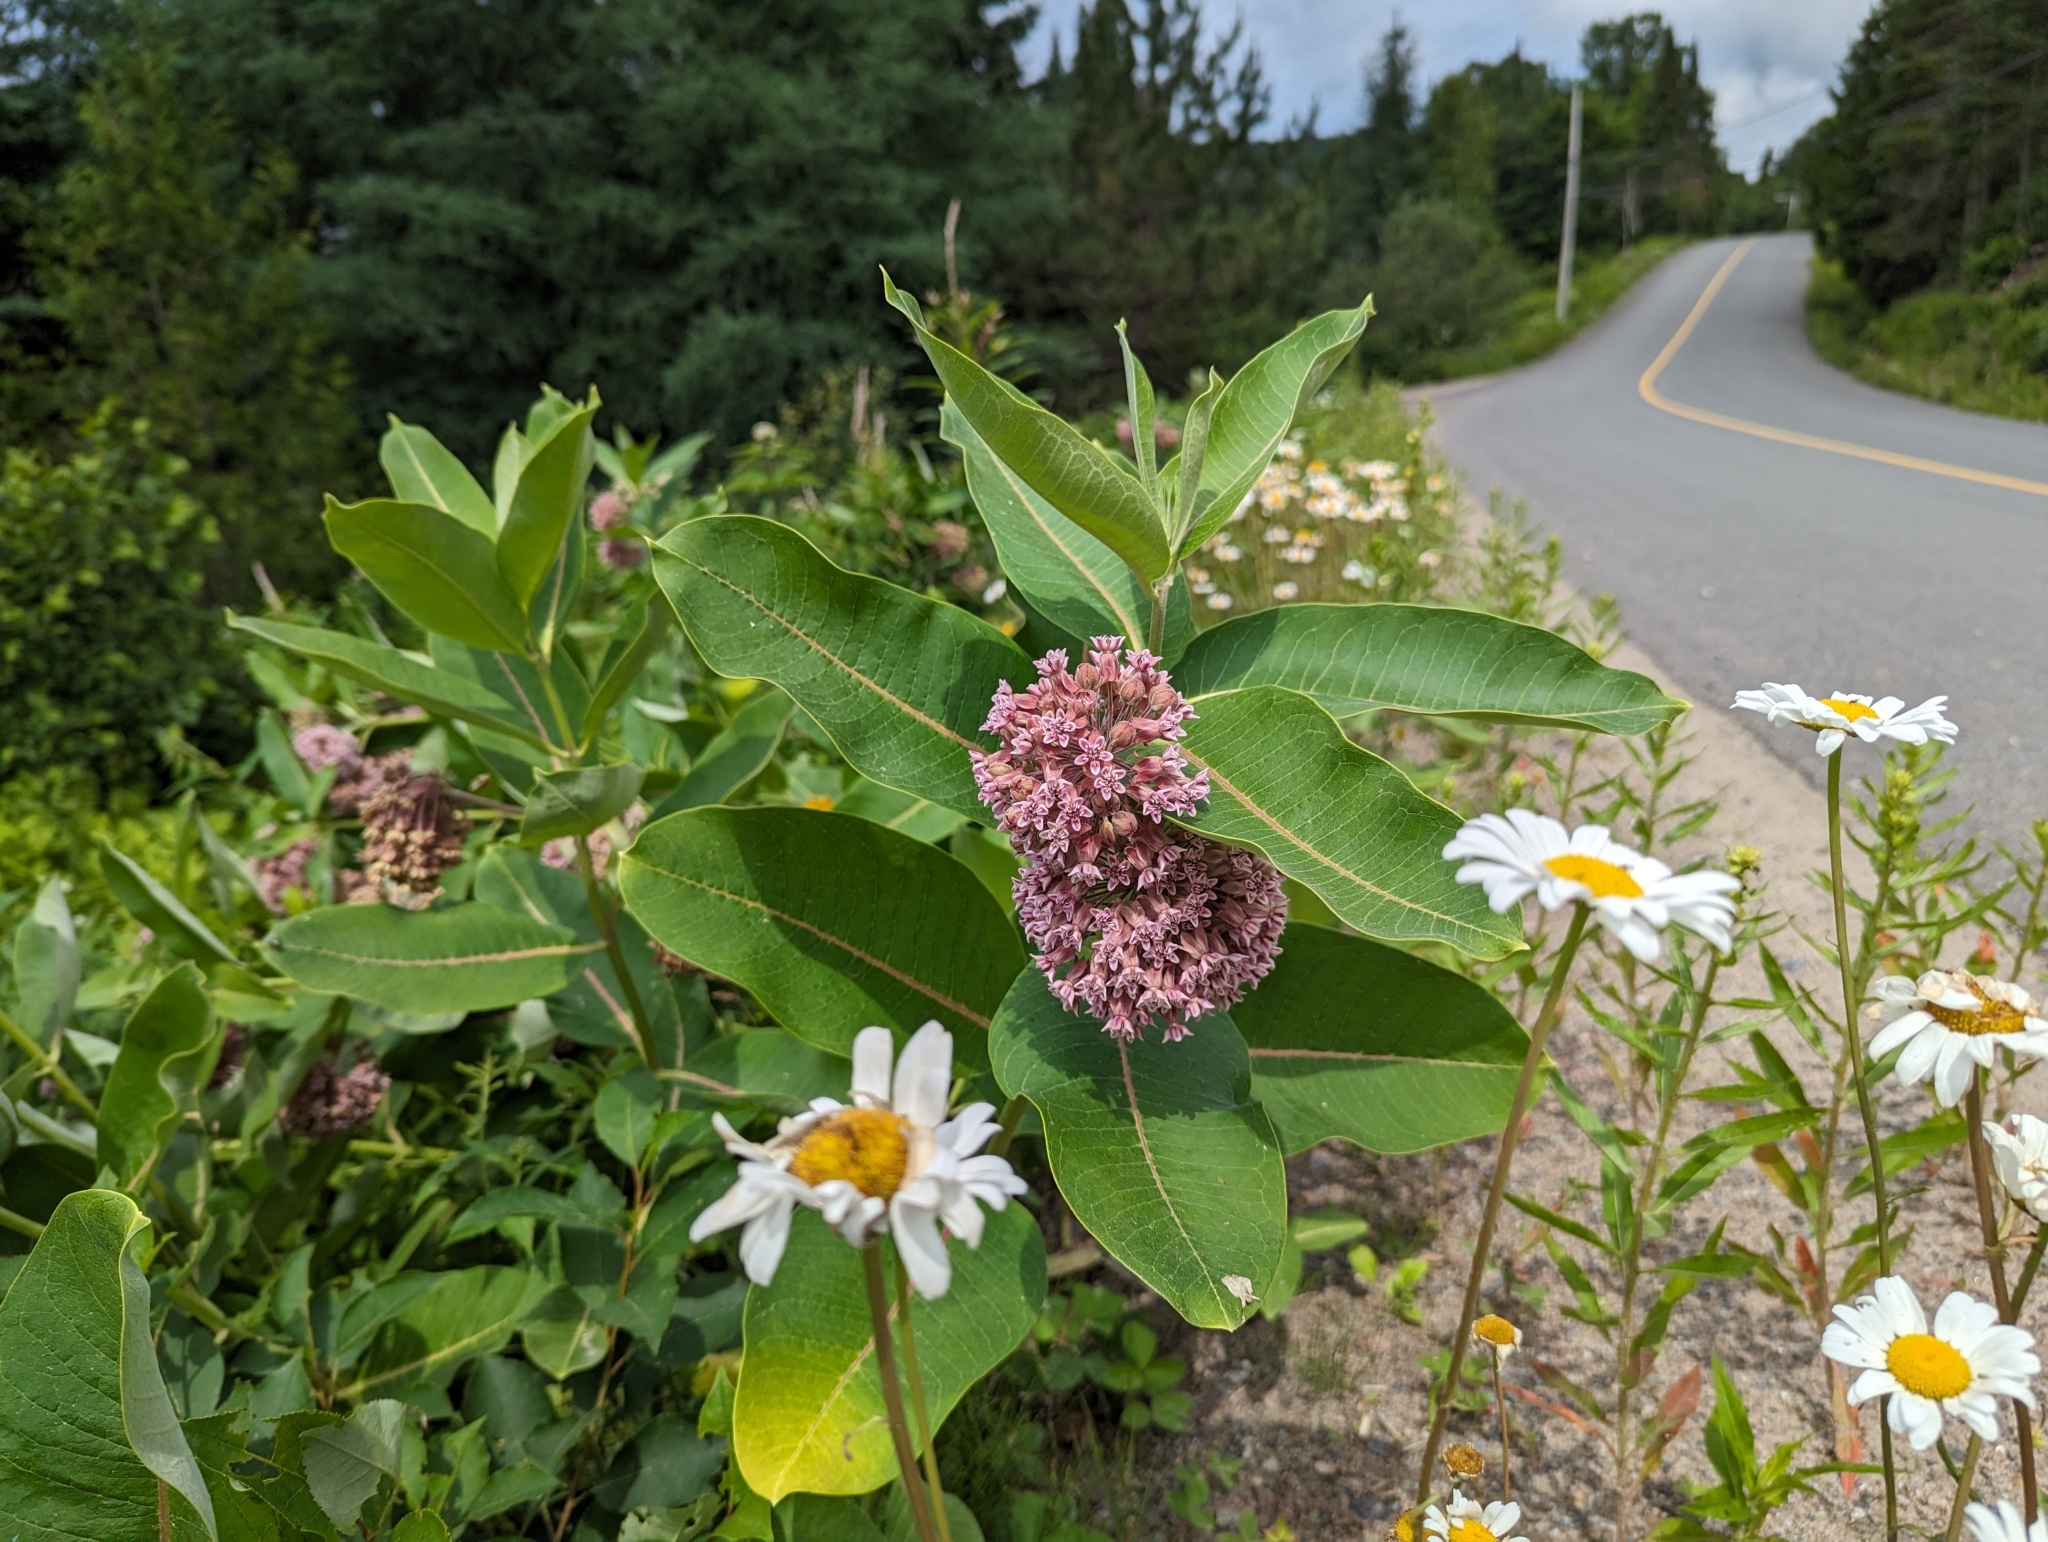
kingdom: Plantae
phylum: Tracheophyta
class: Magnoliopsida
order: Gentianales
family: Apocynaceae
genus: Asclepias
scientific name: Asclepias syriaca
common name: Common milkweed
